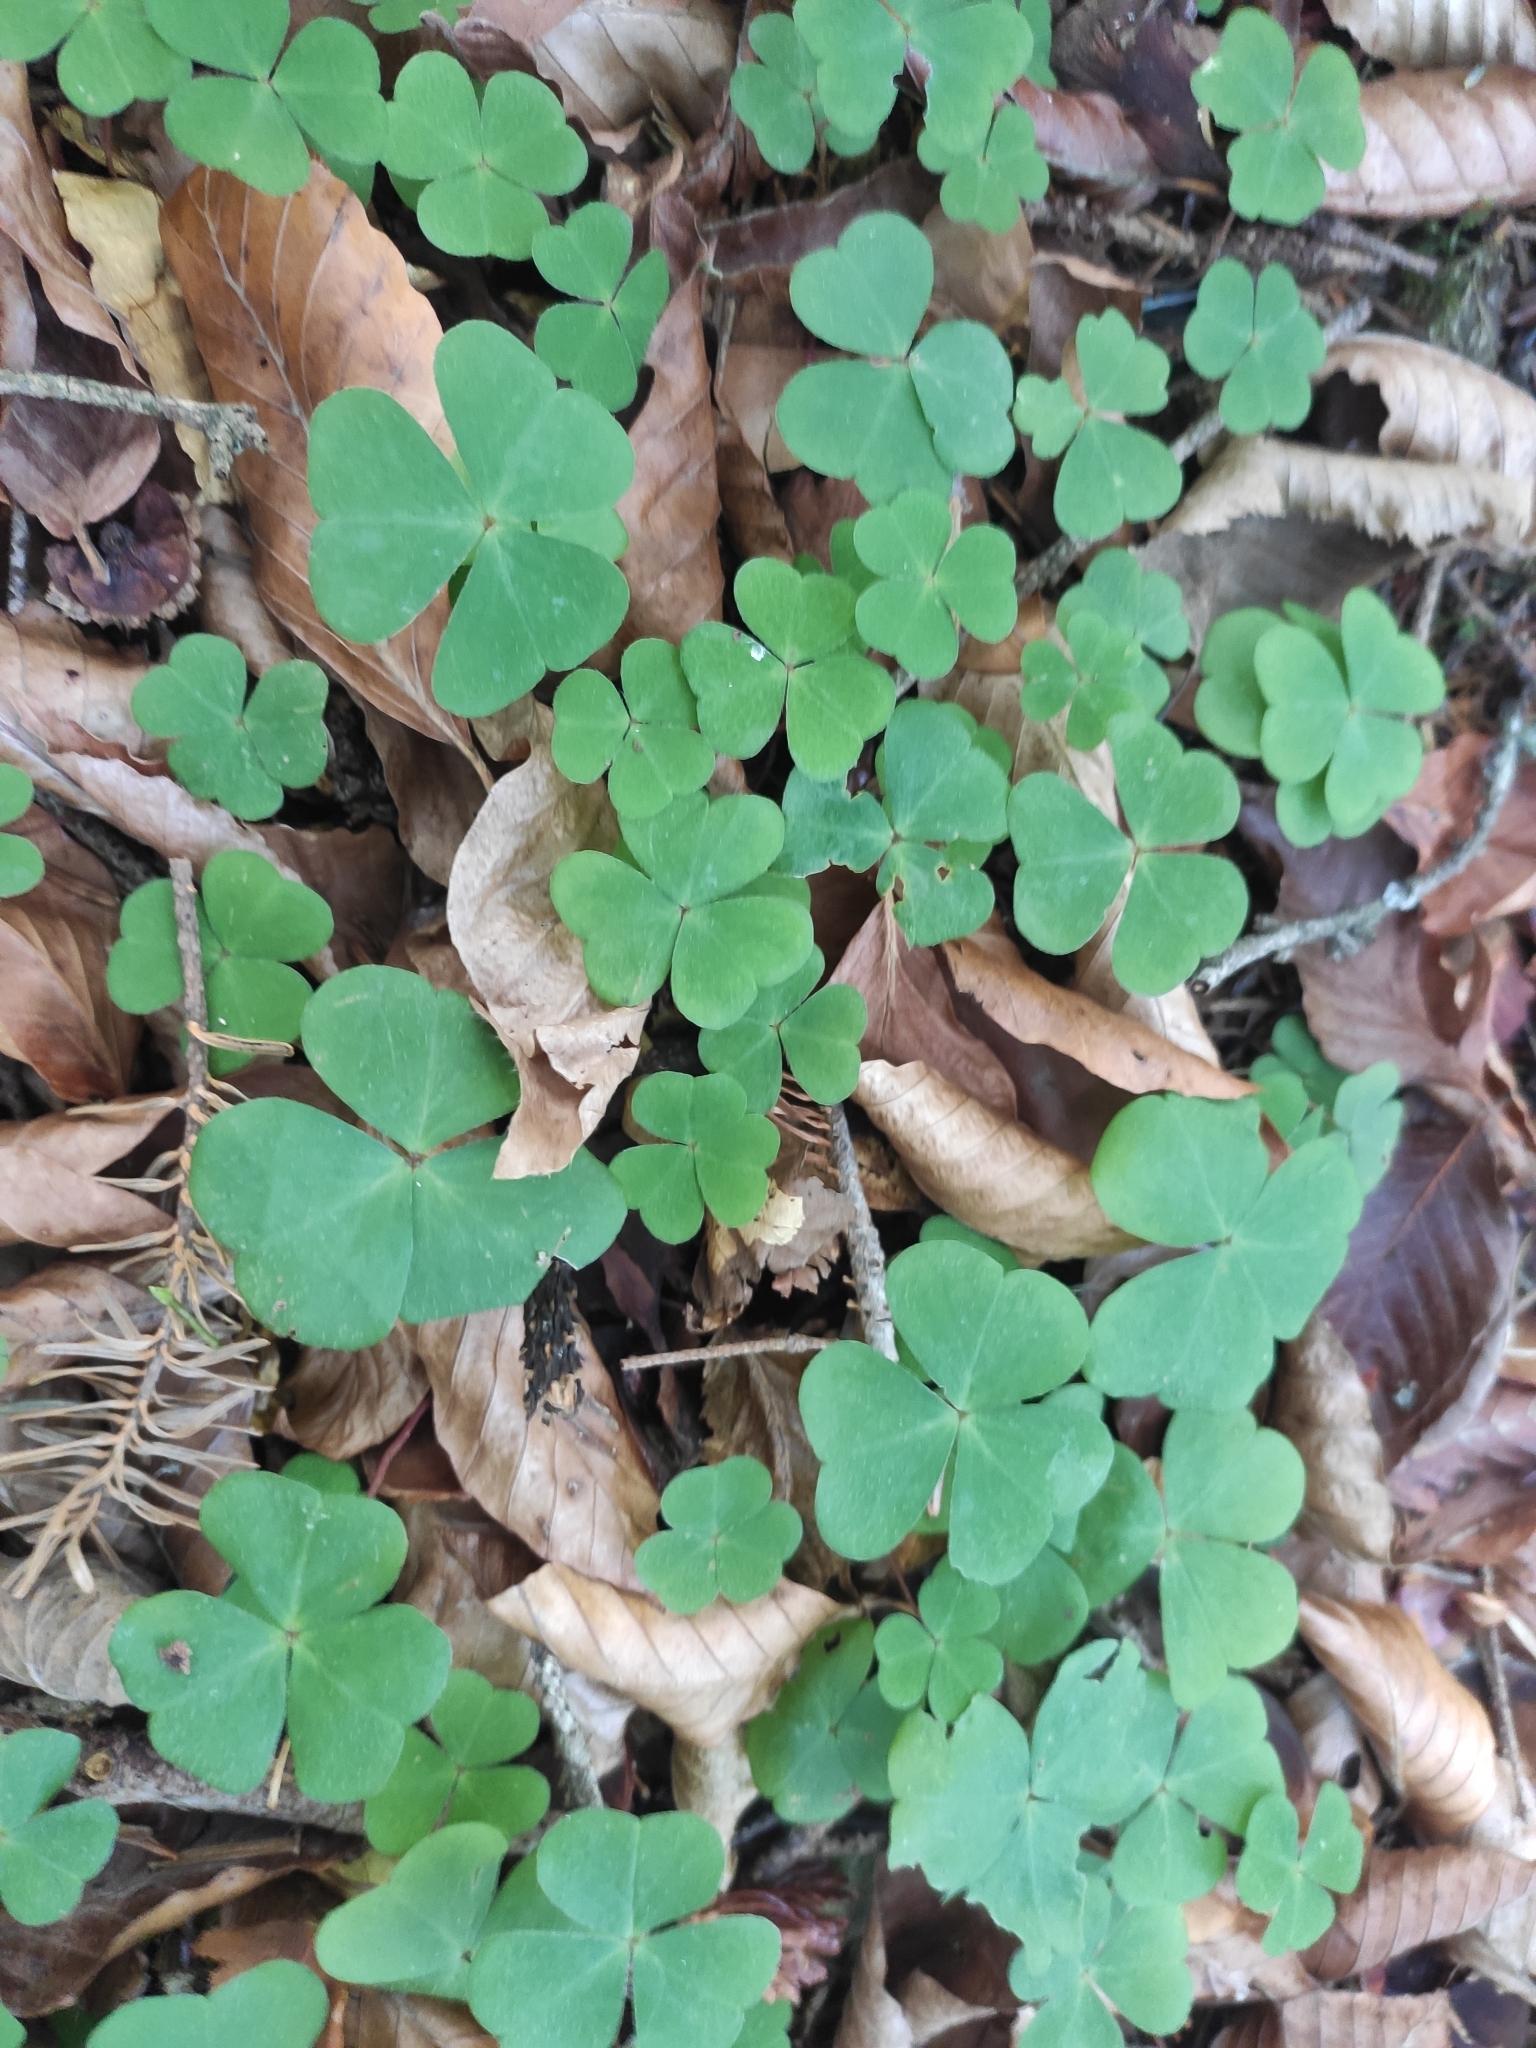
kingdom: Plantae
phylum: Tracheophyta
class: Magnoliopsida
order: Oxalidales
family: Oxalidaceae
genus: Oxalis
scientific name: Oxalis acetosella
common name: Wood-sorrel
